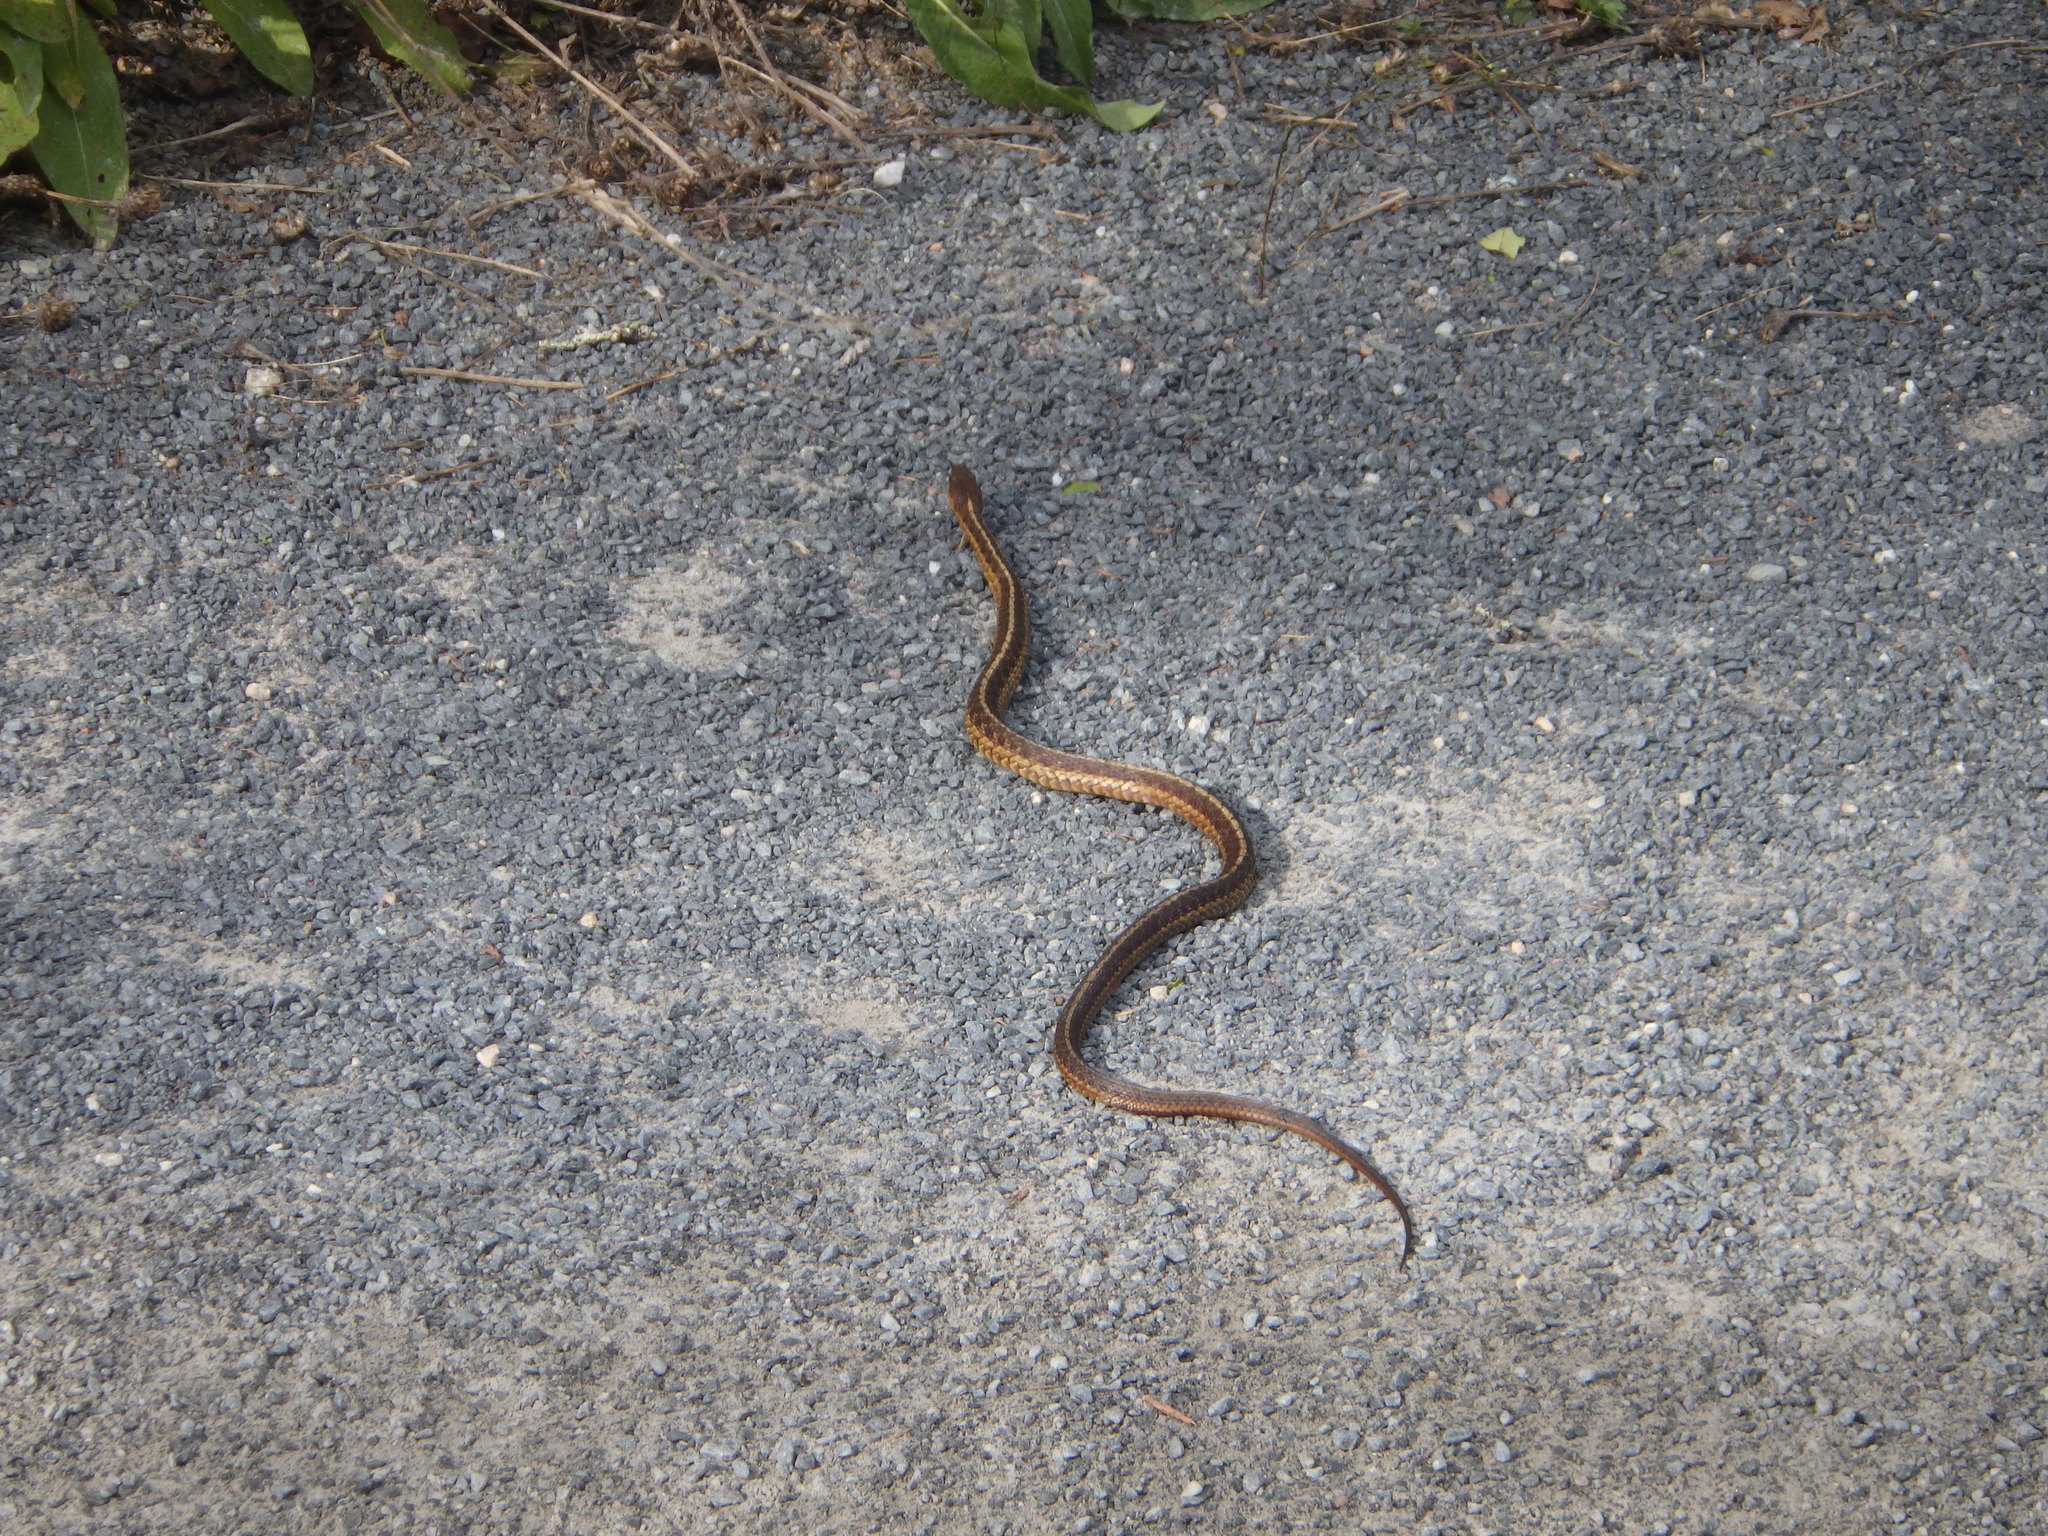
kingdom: Animalia
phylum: Chordata
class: Squamata
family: Colubridae
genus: Thamnophis
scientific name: Thamnophis sirtalis
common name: Common garter snake
